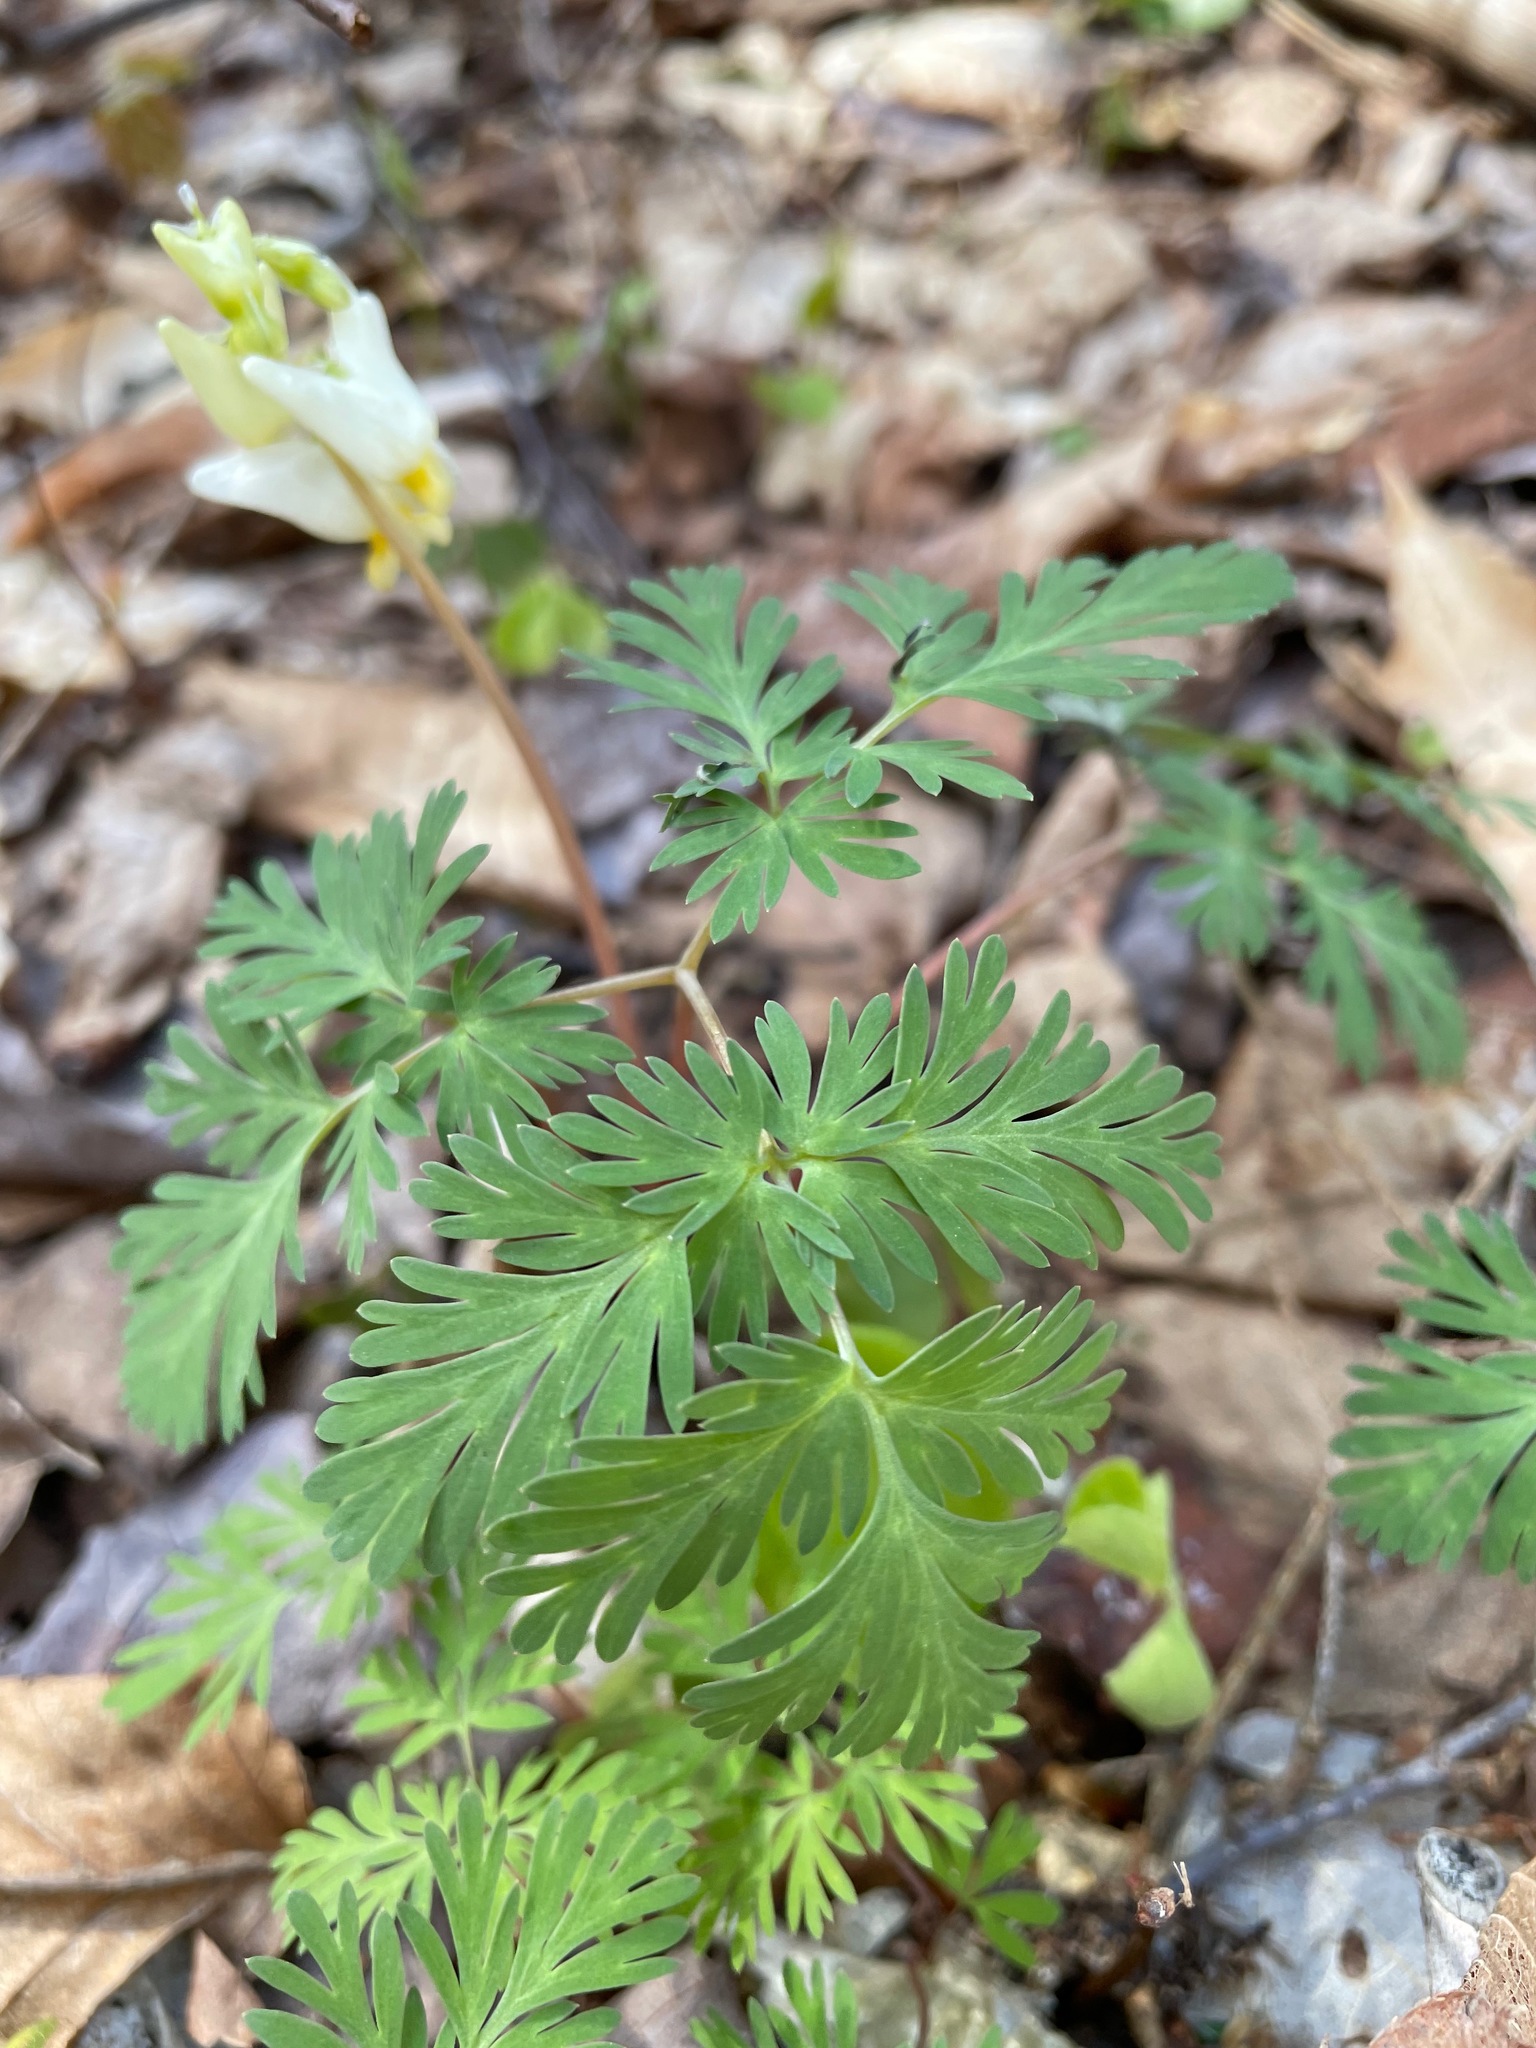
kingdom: Plantae
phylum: Tracheophyta
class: Magnoliopsida
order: Ranunculales
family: Papaveraceae
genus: Dicentra
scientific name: Dicentra cucullaria
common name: Dutchman's breeches
